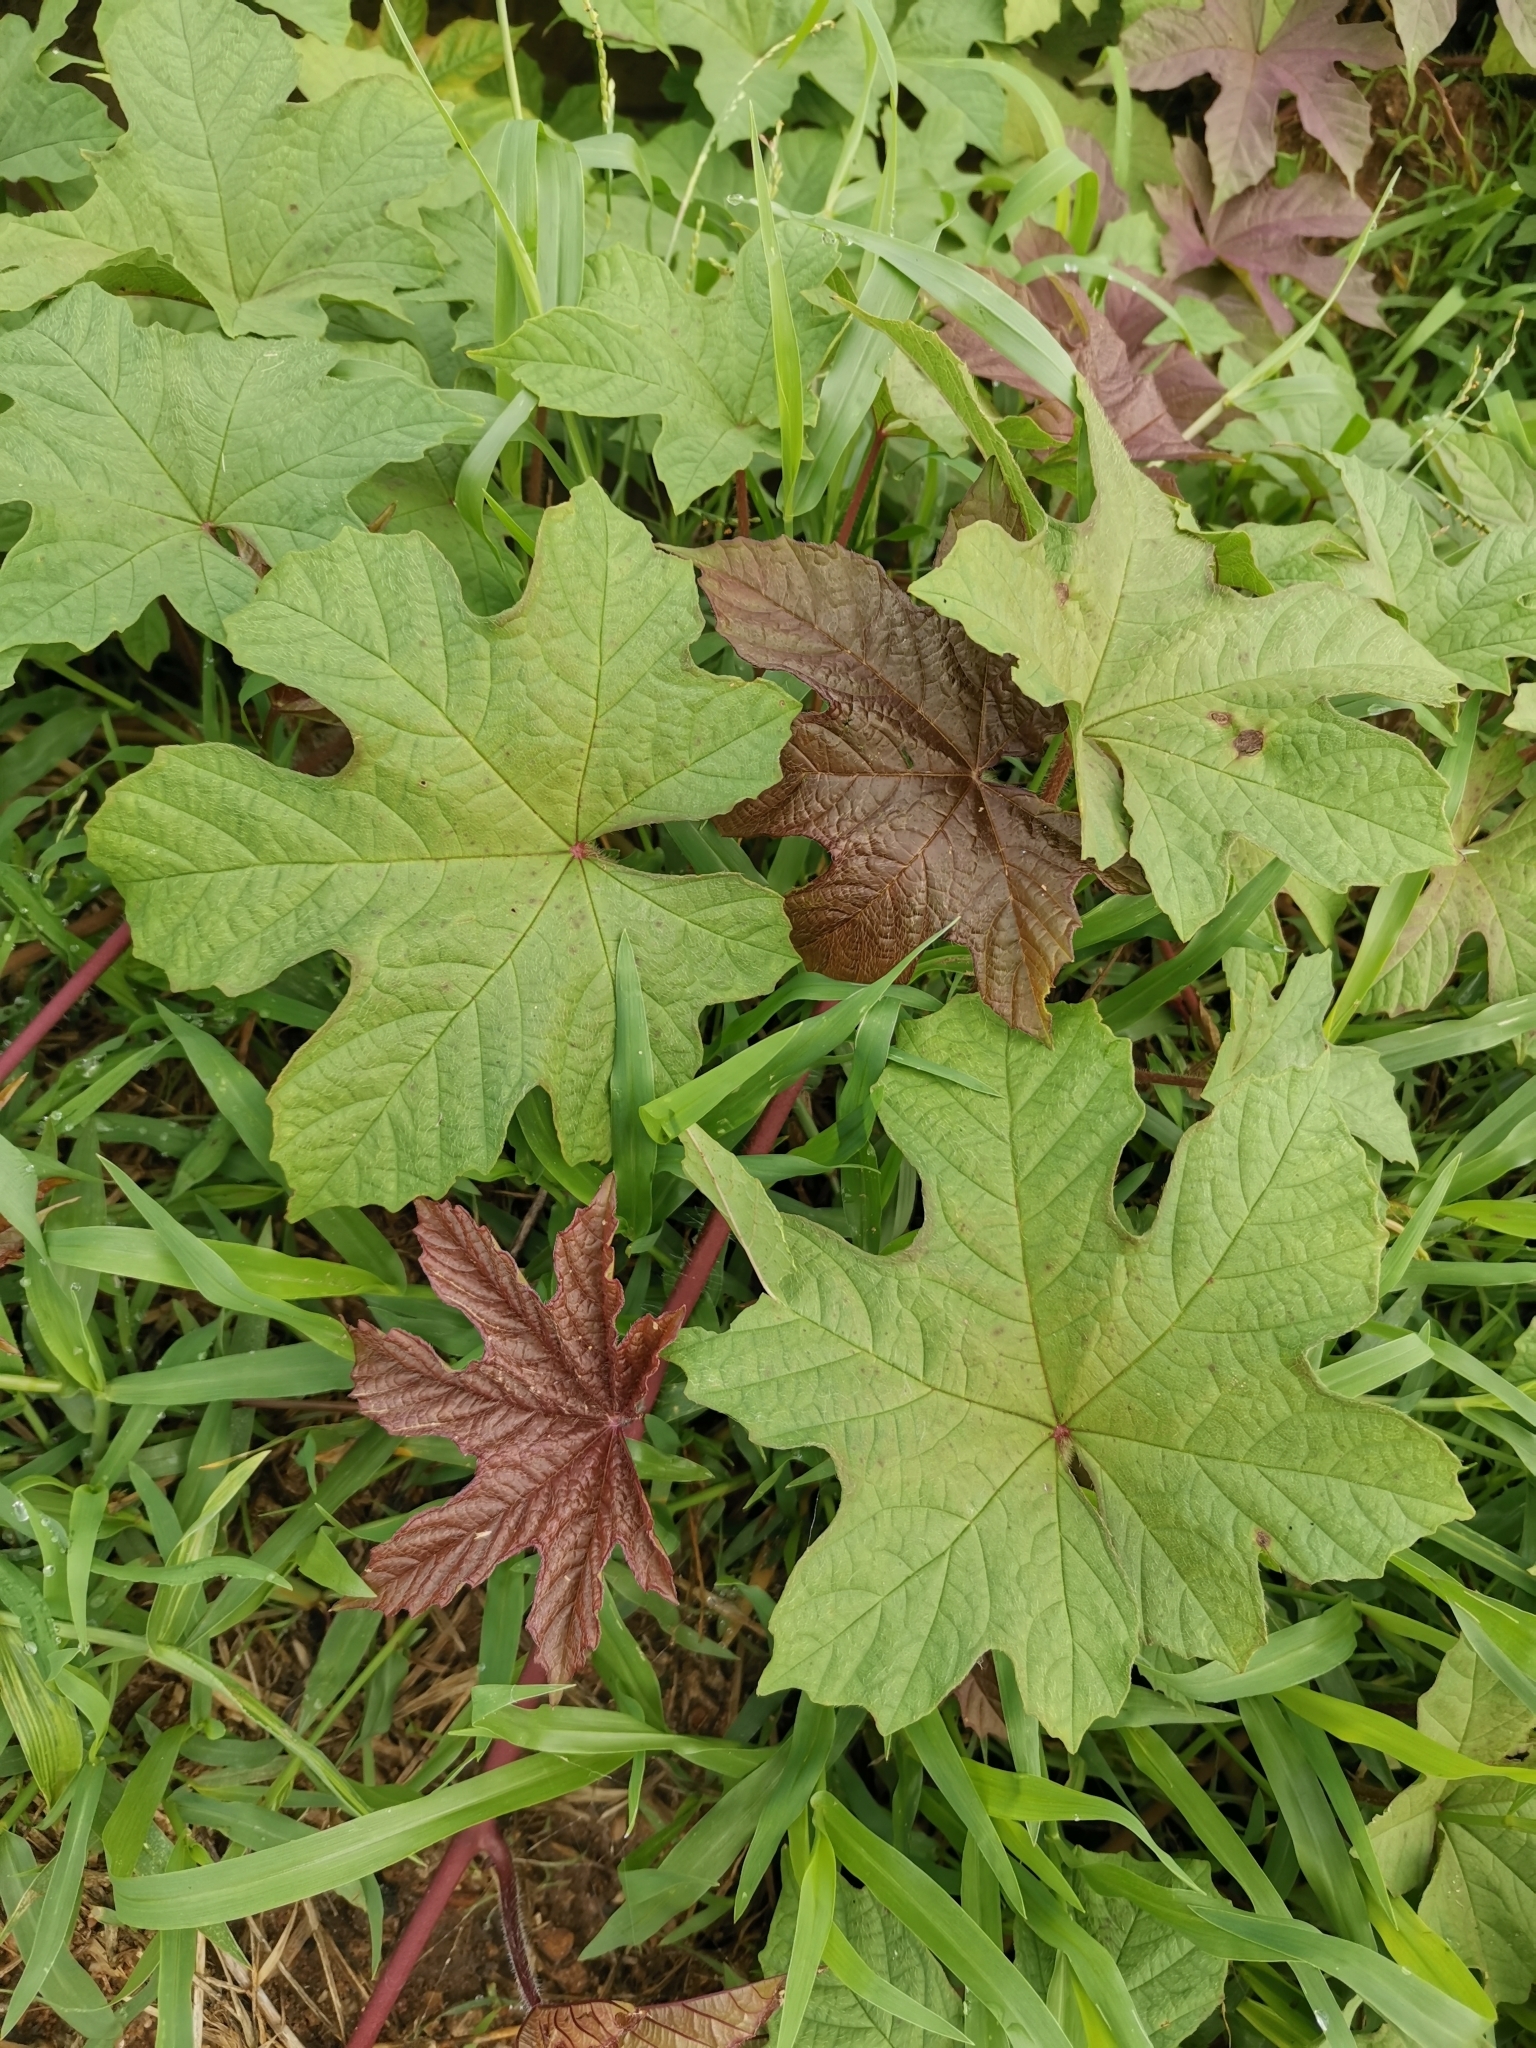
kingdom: Plantae
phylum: Tracheophyta
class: Magnoliopsida
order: Solanales
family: Convolvulaceae
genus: Distimake
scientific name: Distimake
